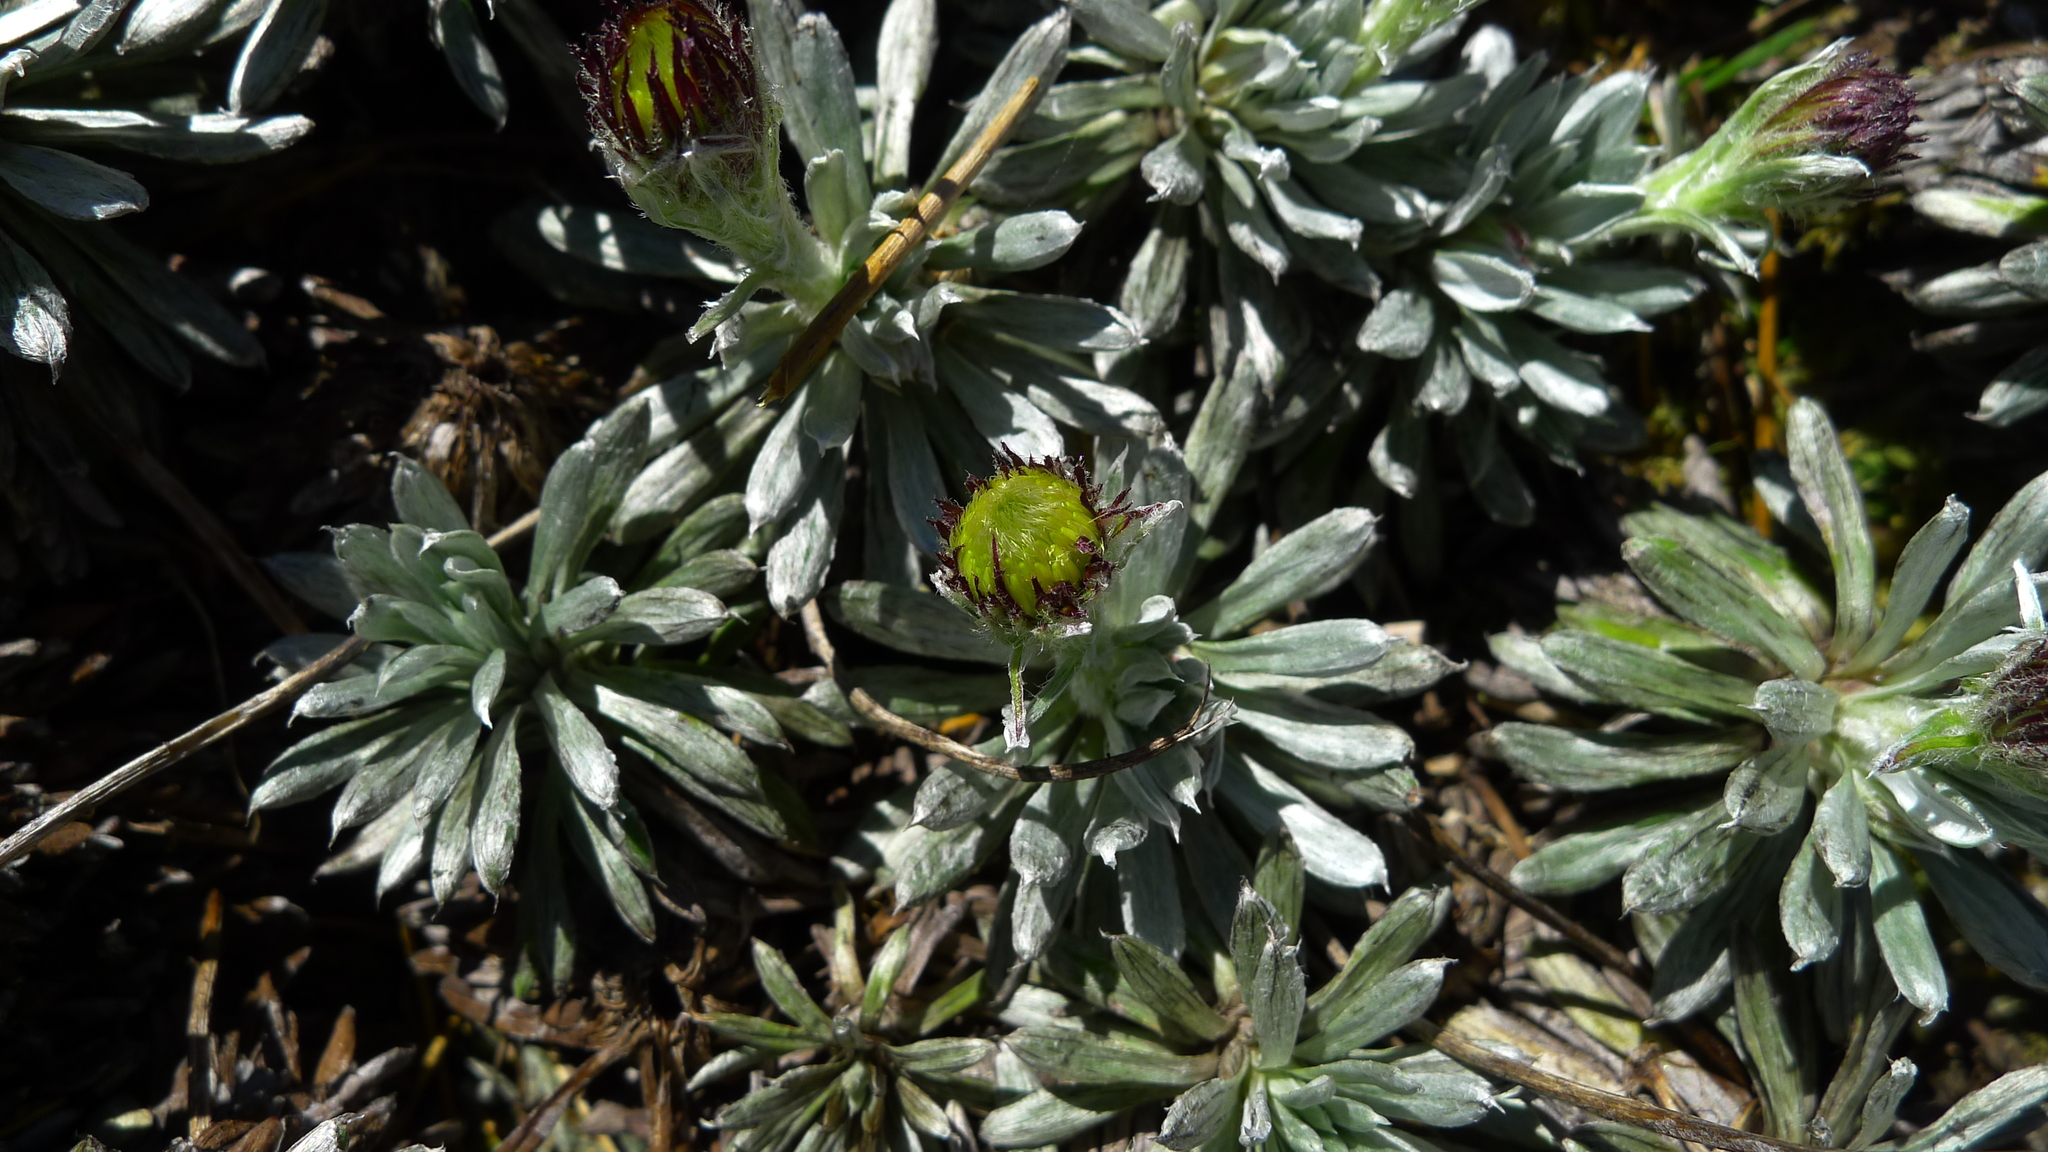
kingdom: Plantae
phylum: Tracheophyta
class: Magnoliopsida
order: Asterales
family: Asteraceae
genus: Celmisia
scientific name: Celmisia hectorii
